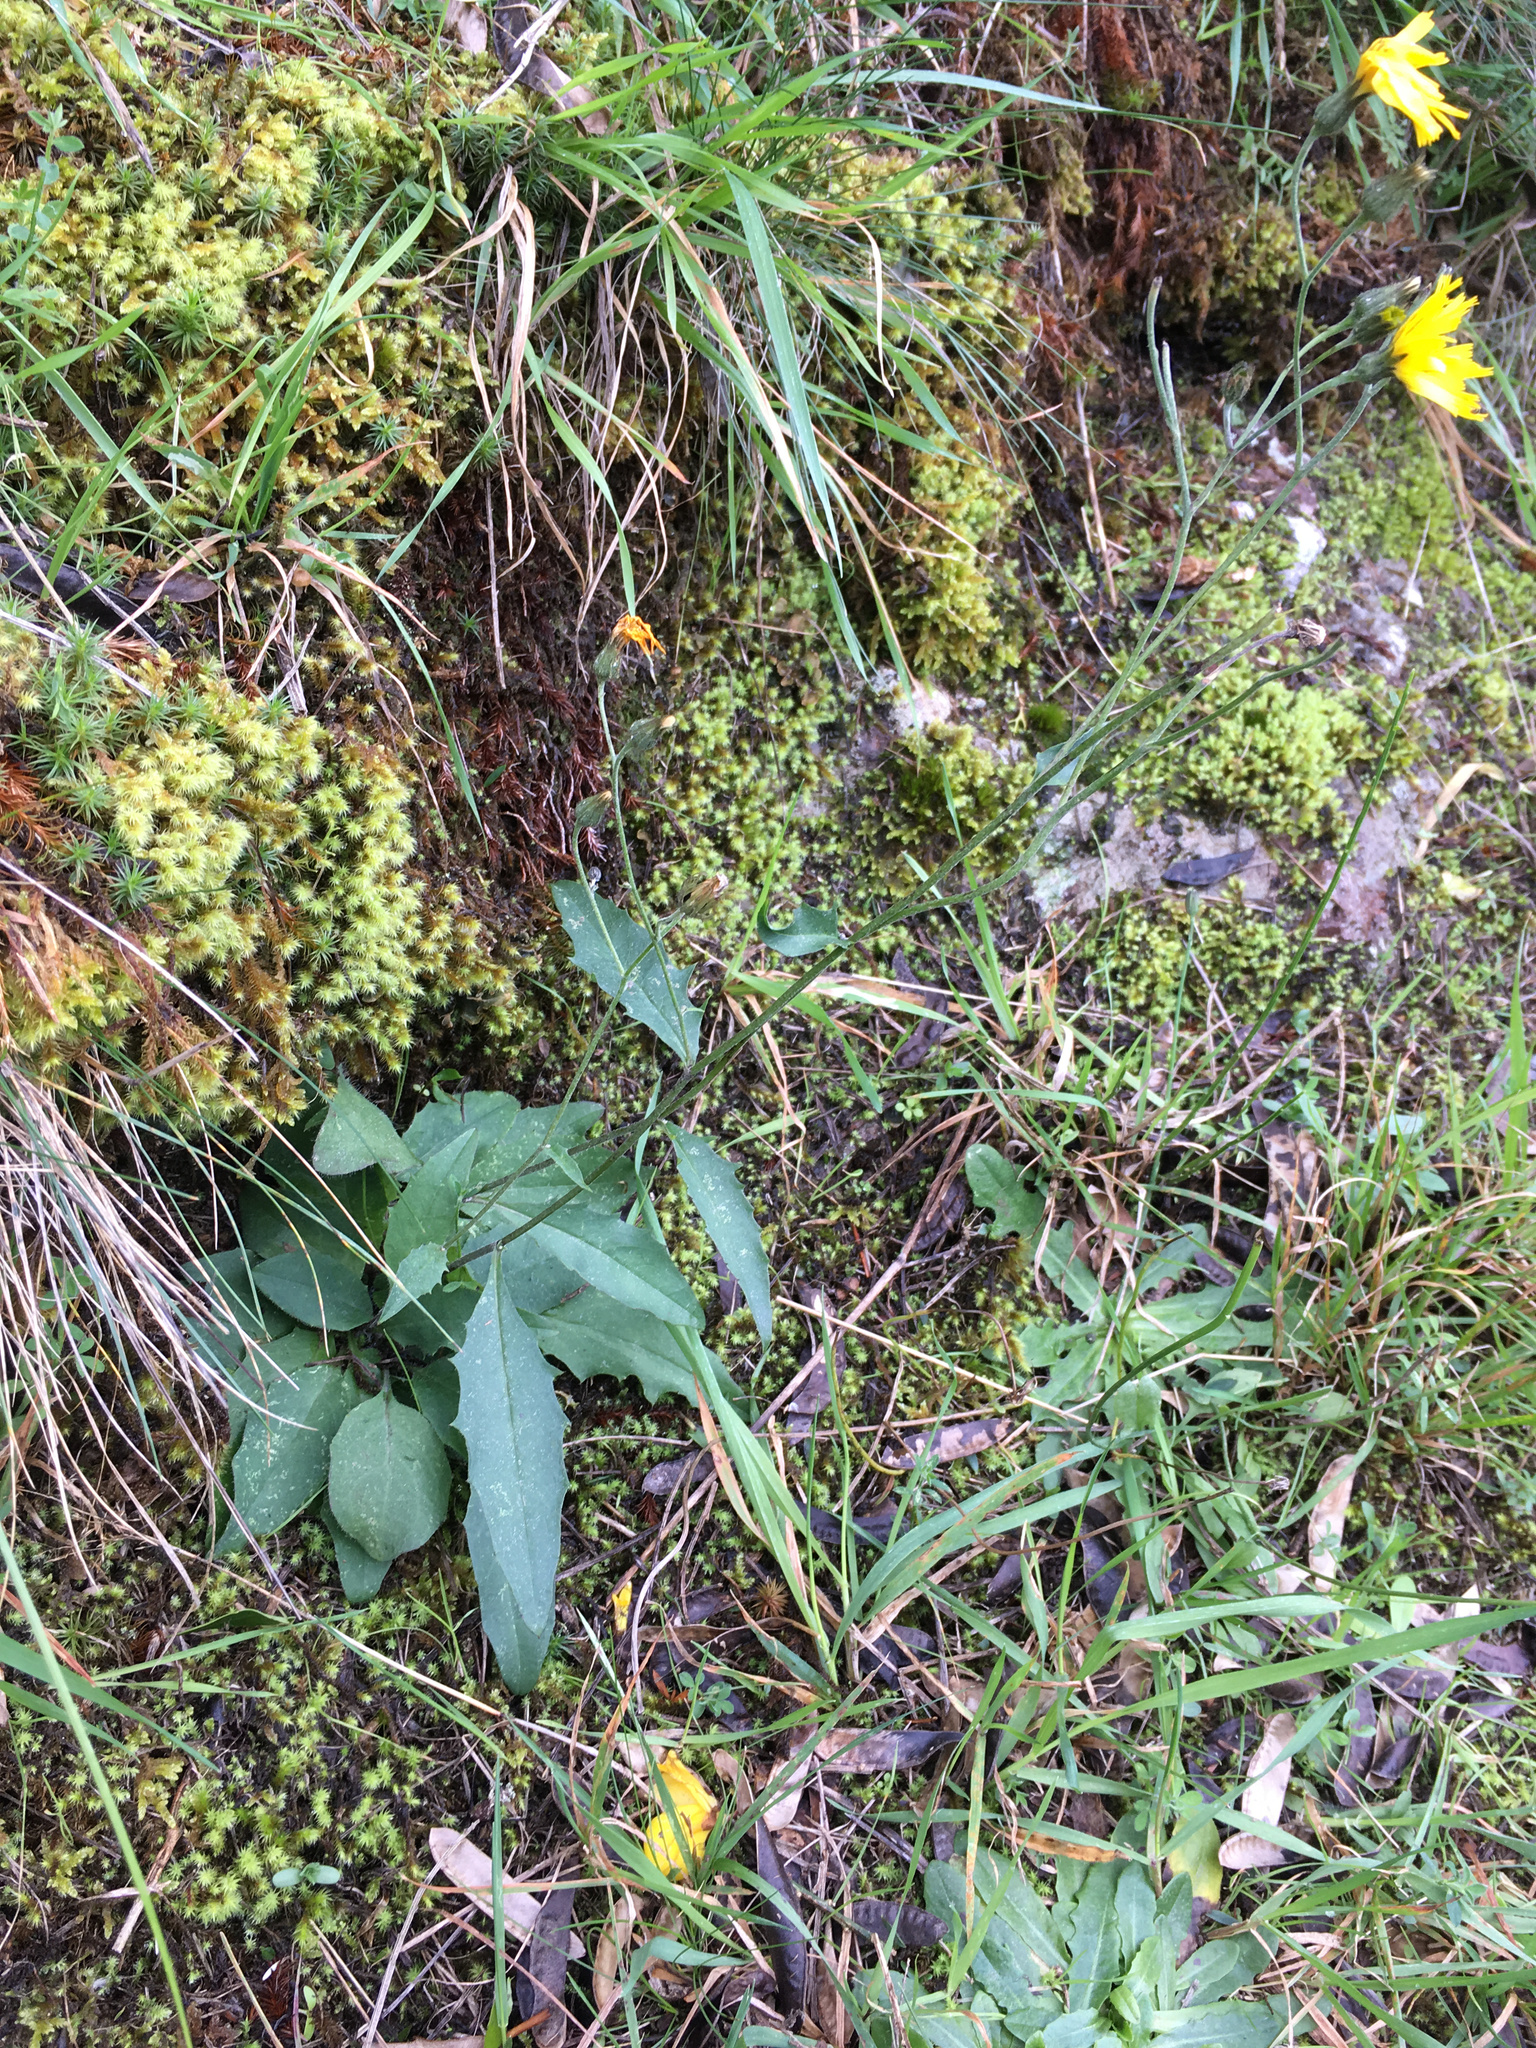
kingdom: Plantae
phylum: Tracheophyta
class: Magnoliopsida
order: Asterales
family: Asteraceae
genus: Hieracium
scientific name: Hieracium lepidulum
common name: Irregular-toothed hawkweed
